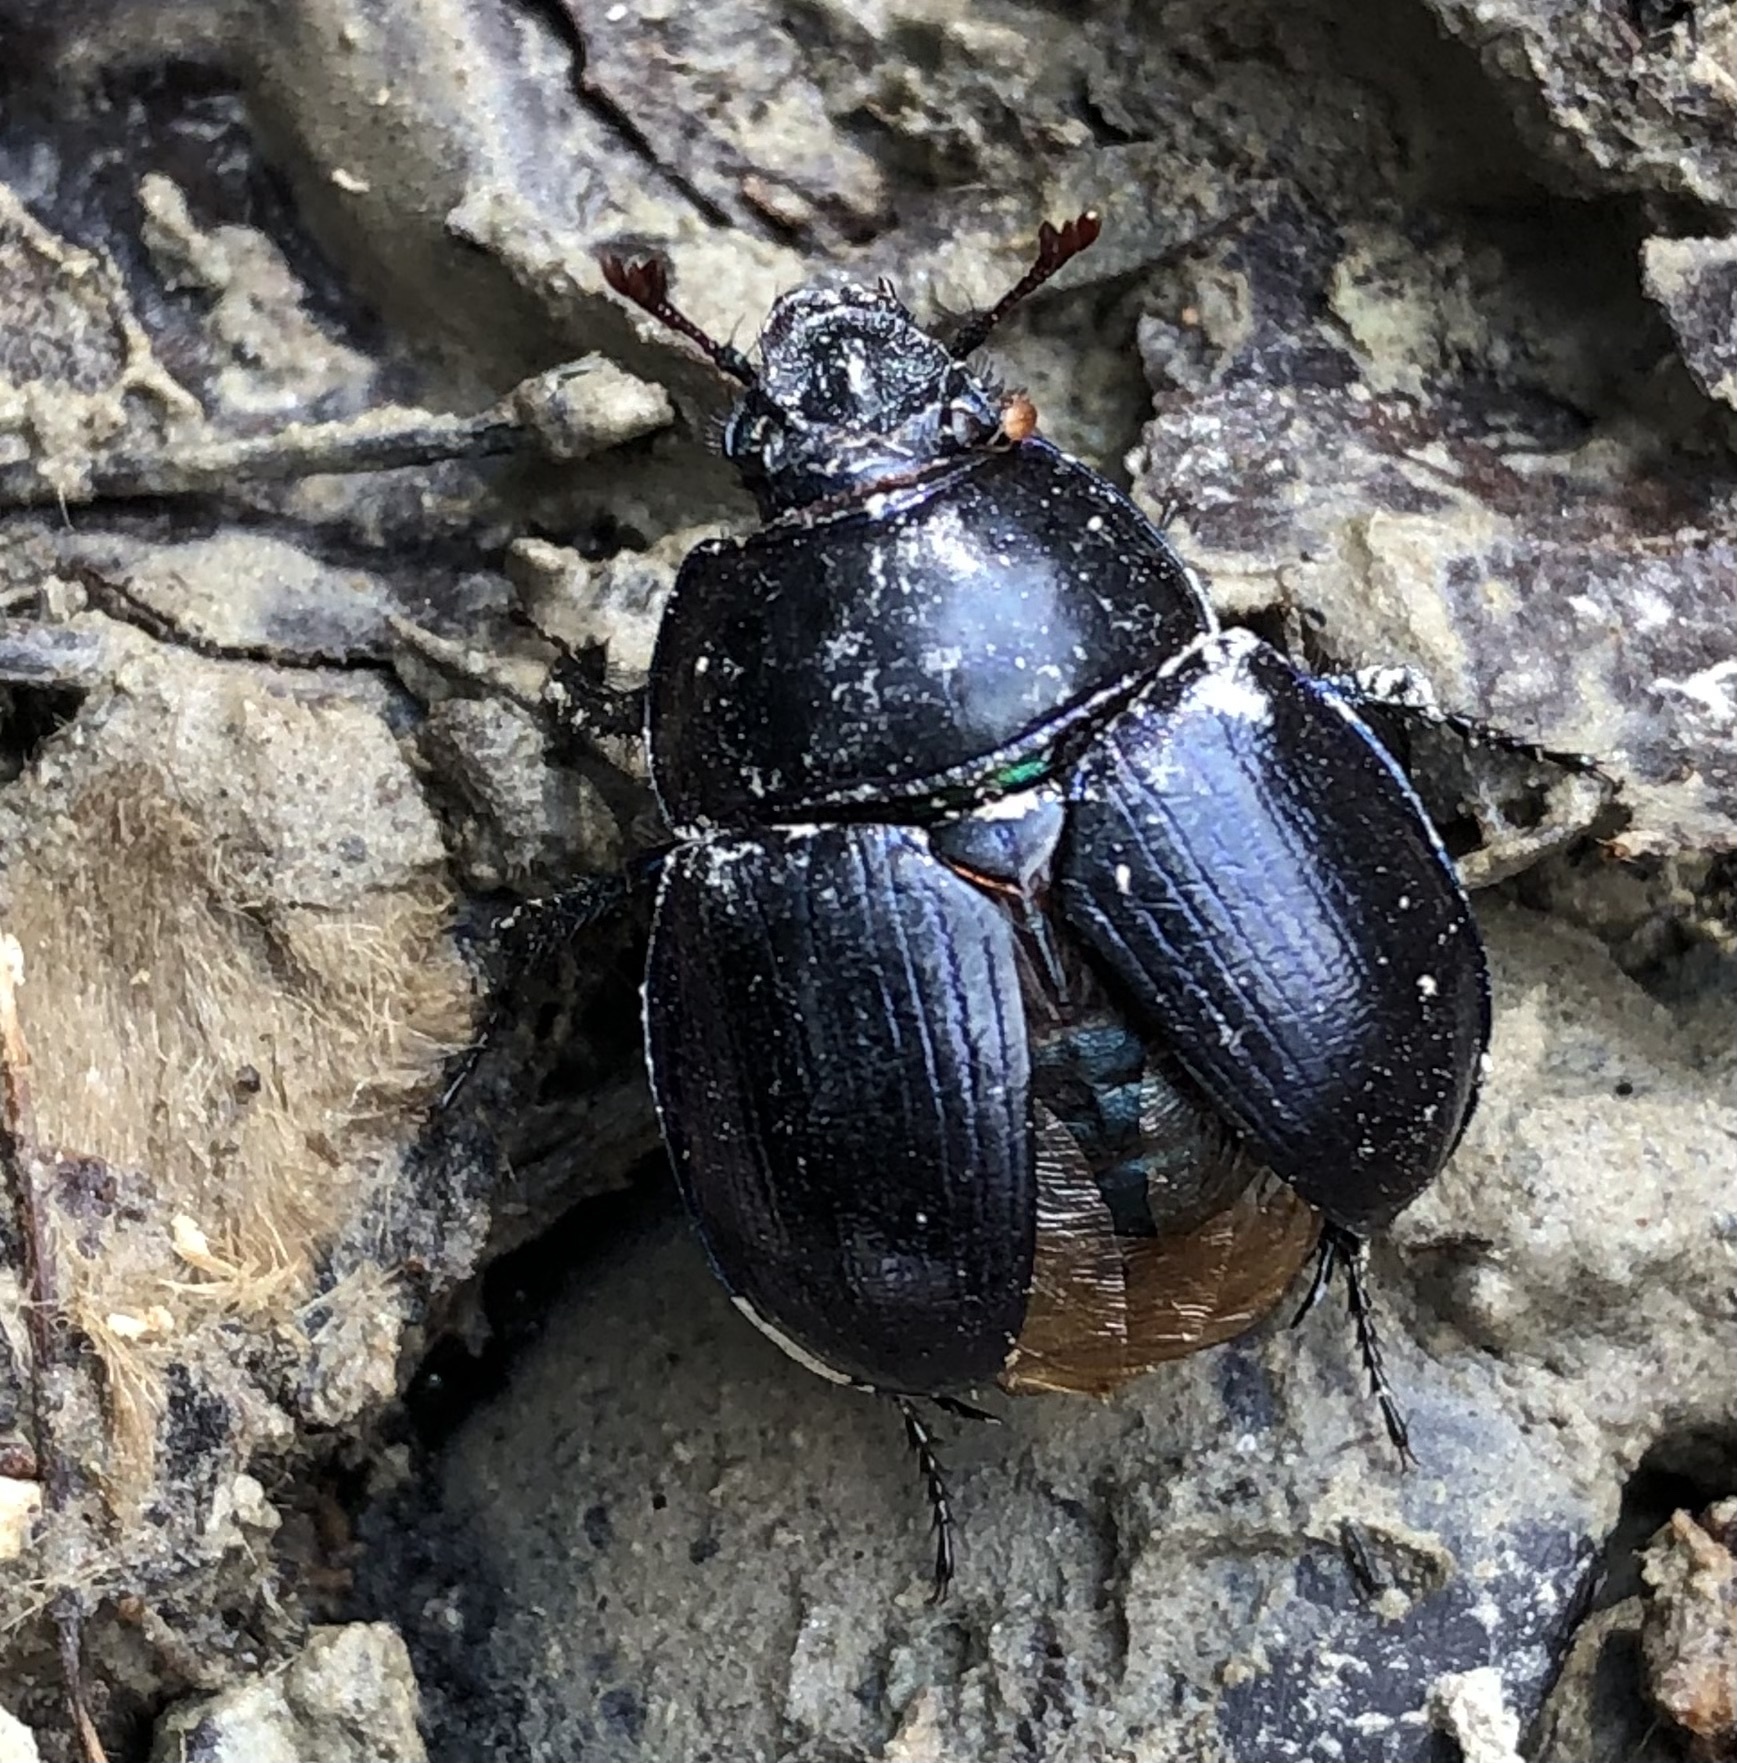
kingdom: Animalia
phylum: Arthropoda
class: Insecta
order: Coleoptera
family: Geotrupidae
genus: Anoplotrupes
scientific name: Anoplotrupes stercorosus
